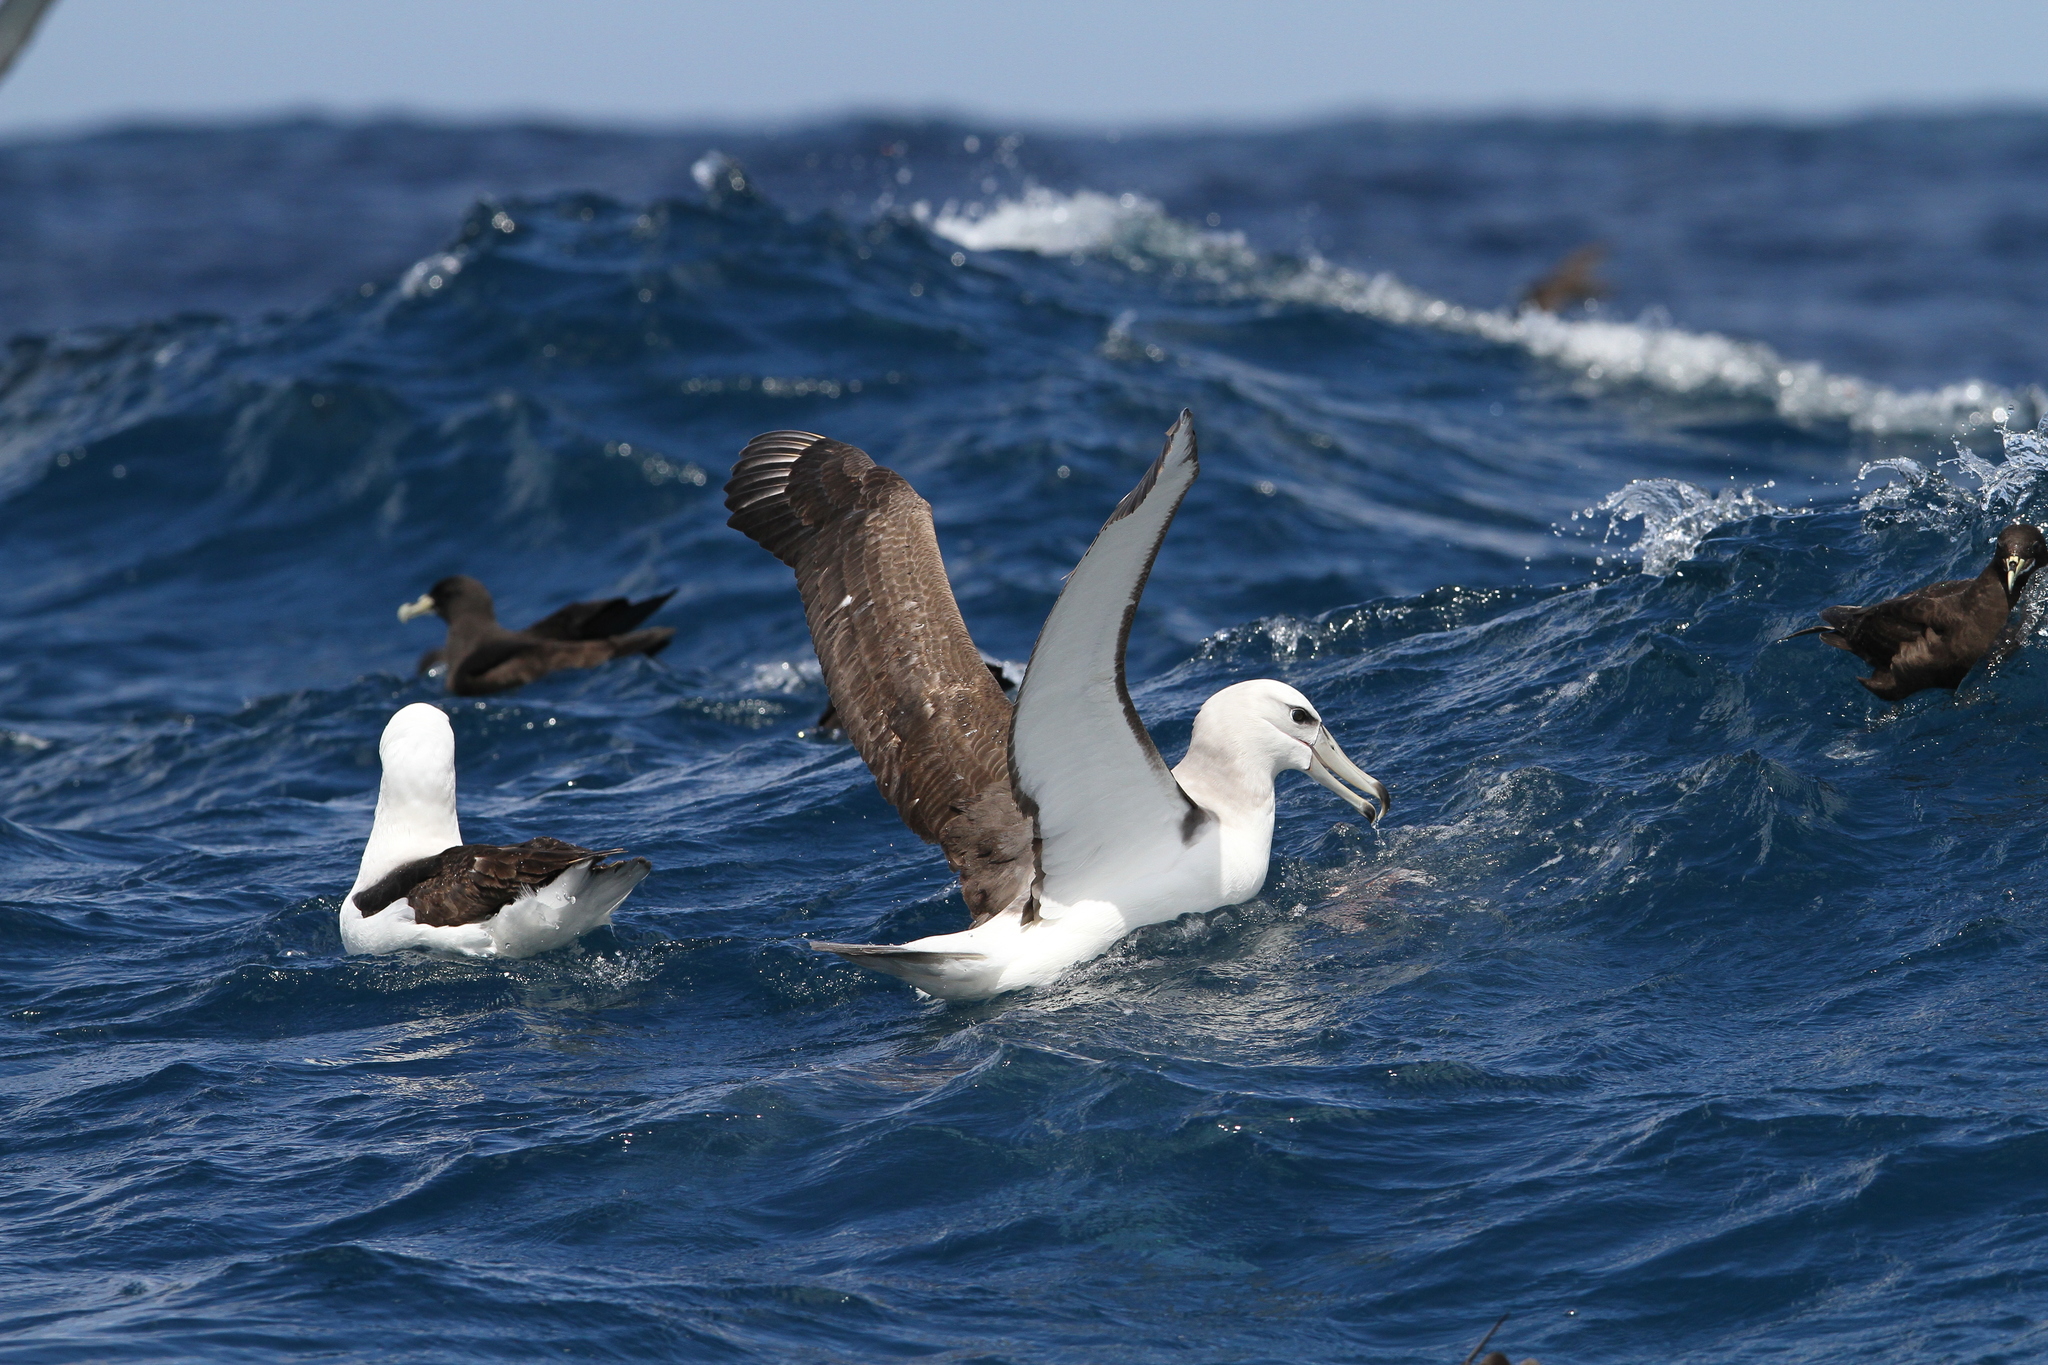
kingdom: Animalia
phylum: Chordata
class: Aves
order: Procellariiformes
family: Diomedeidae
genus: Thalassarche
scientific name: Thalassarche cauta
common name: Shy albatross
